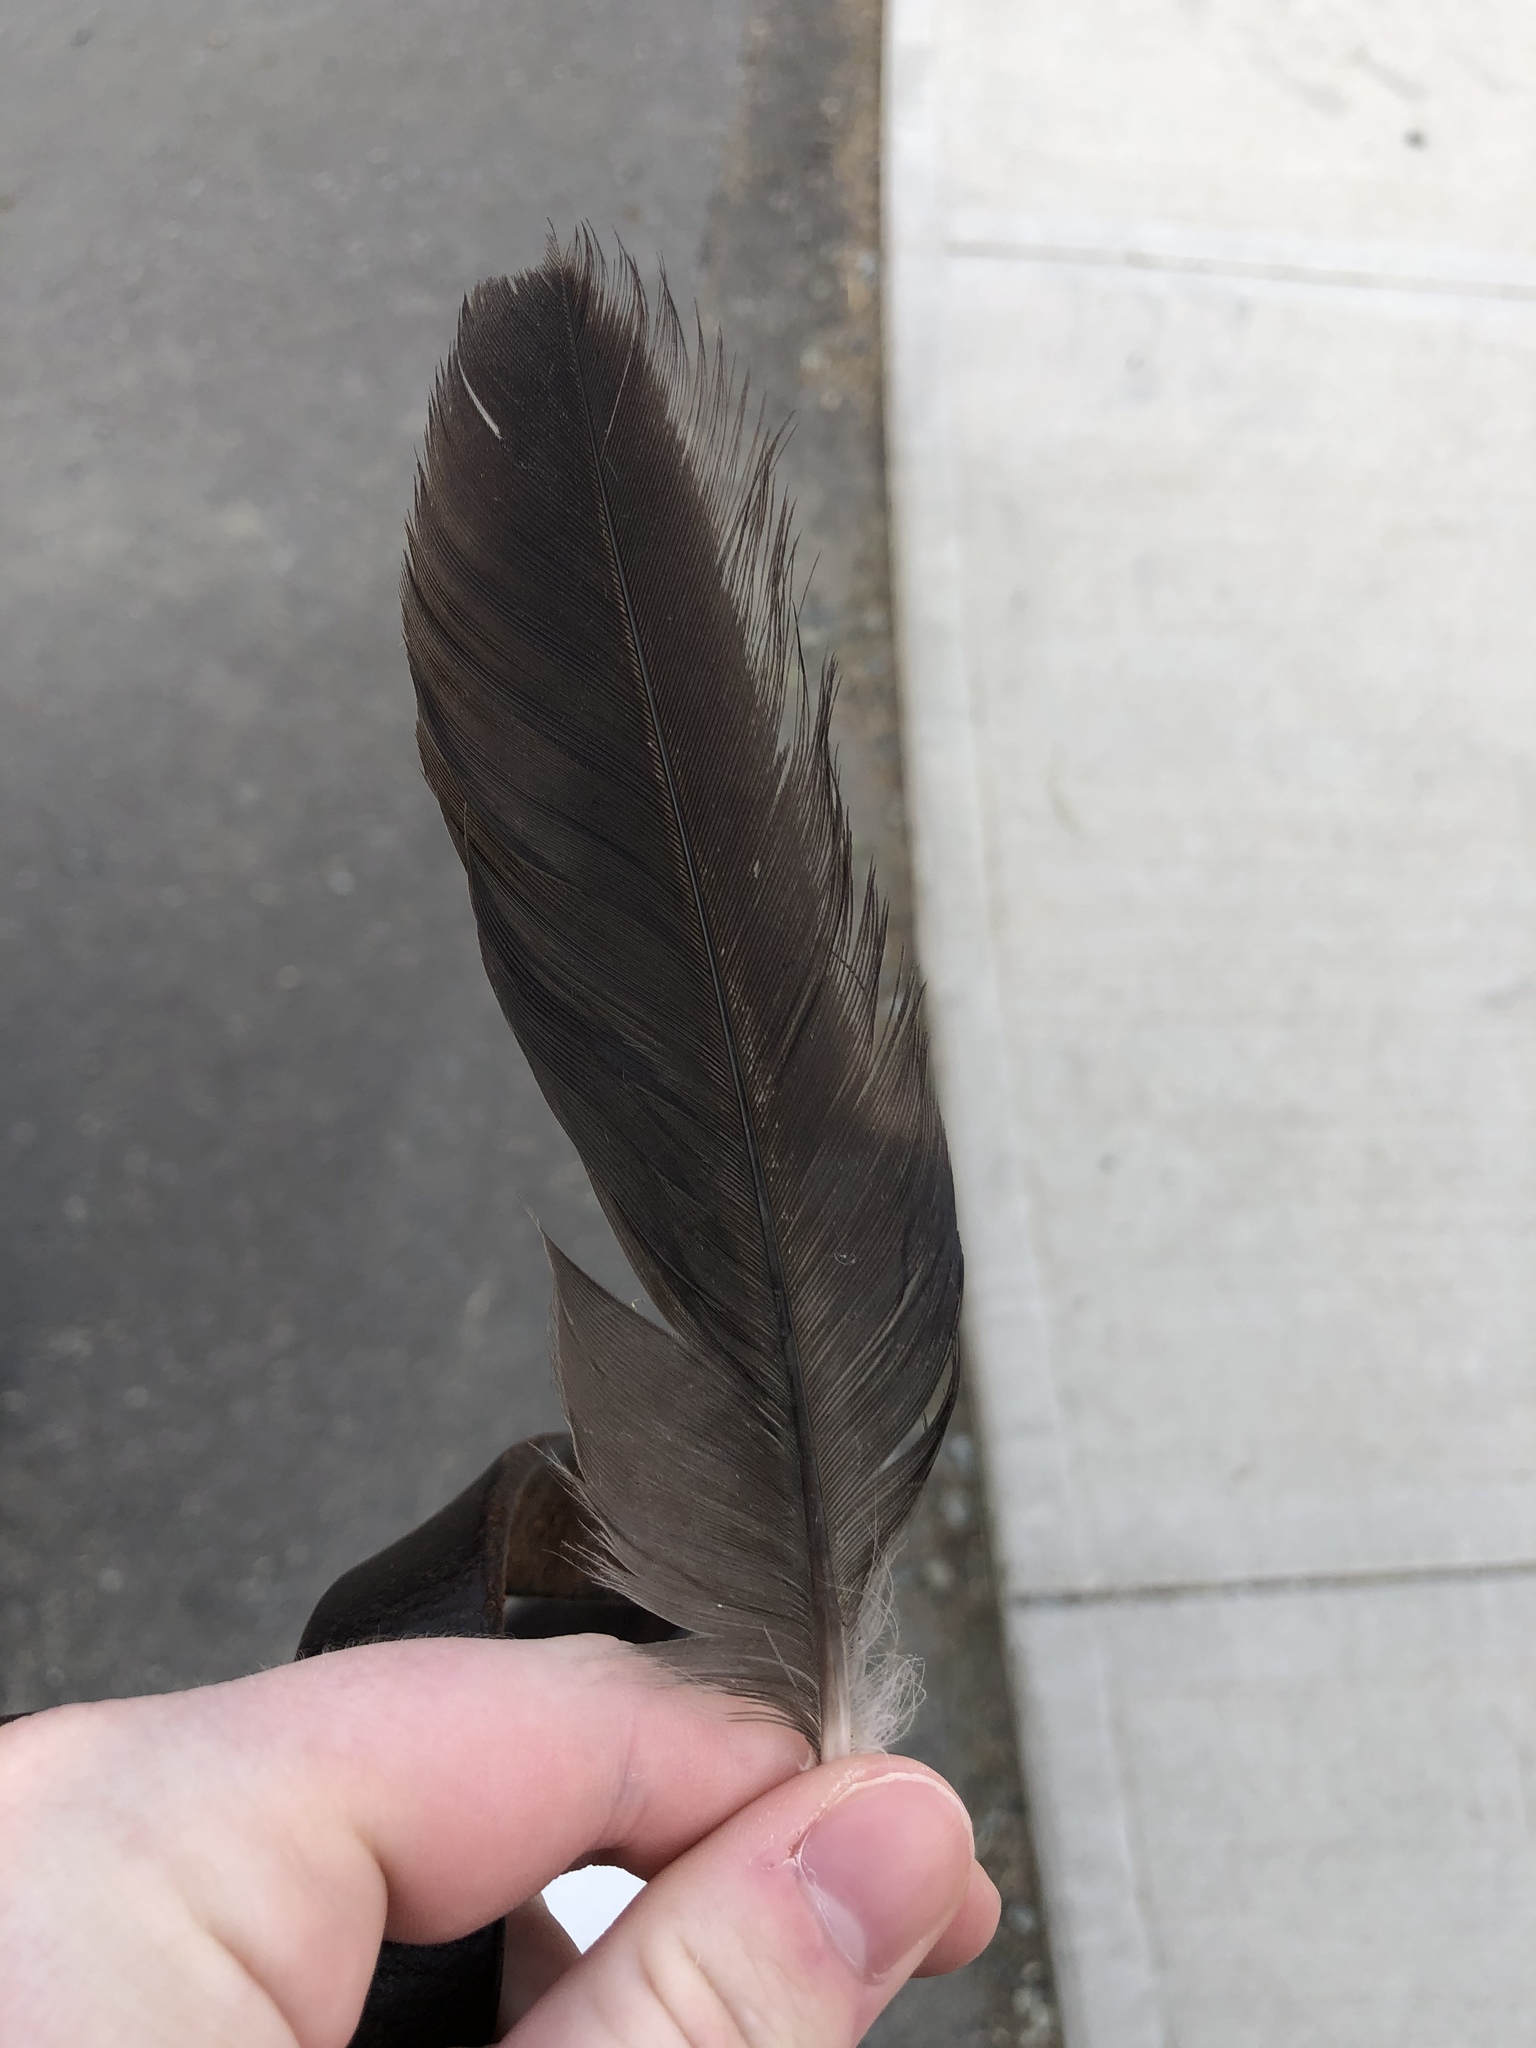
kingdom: Animalia
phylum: Chordata
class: Aves
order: Passeriformes
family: Corvidae
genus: Corvus
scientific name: Corvus brachyrhynchos
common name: American crow
